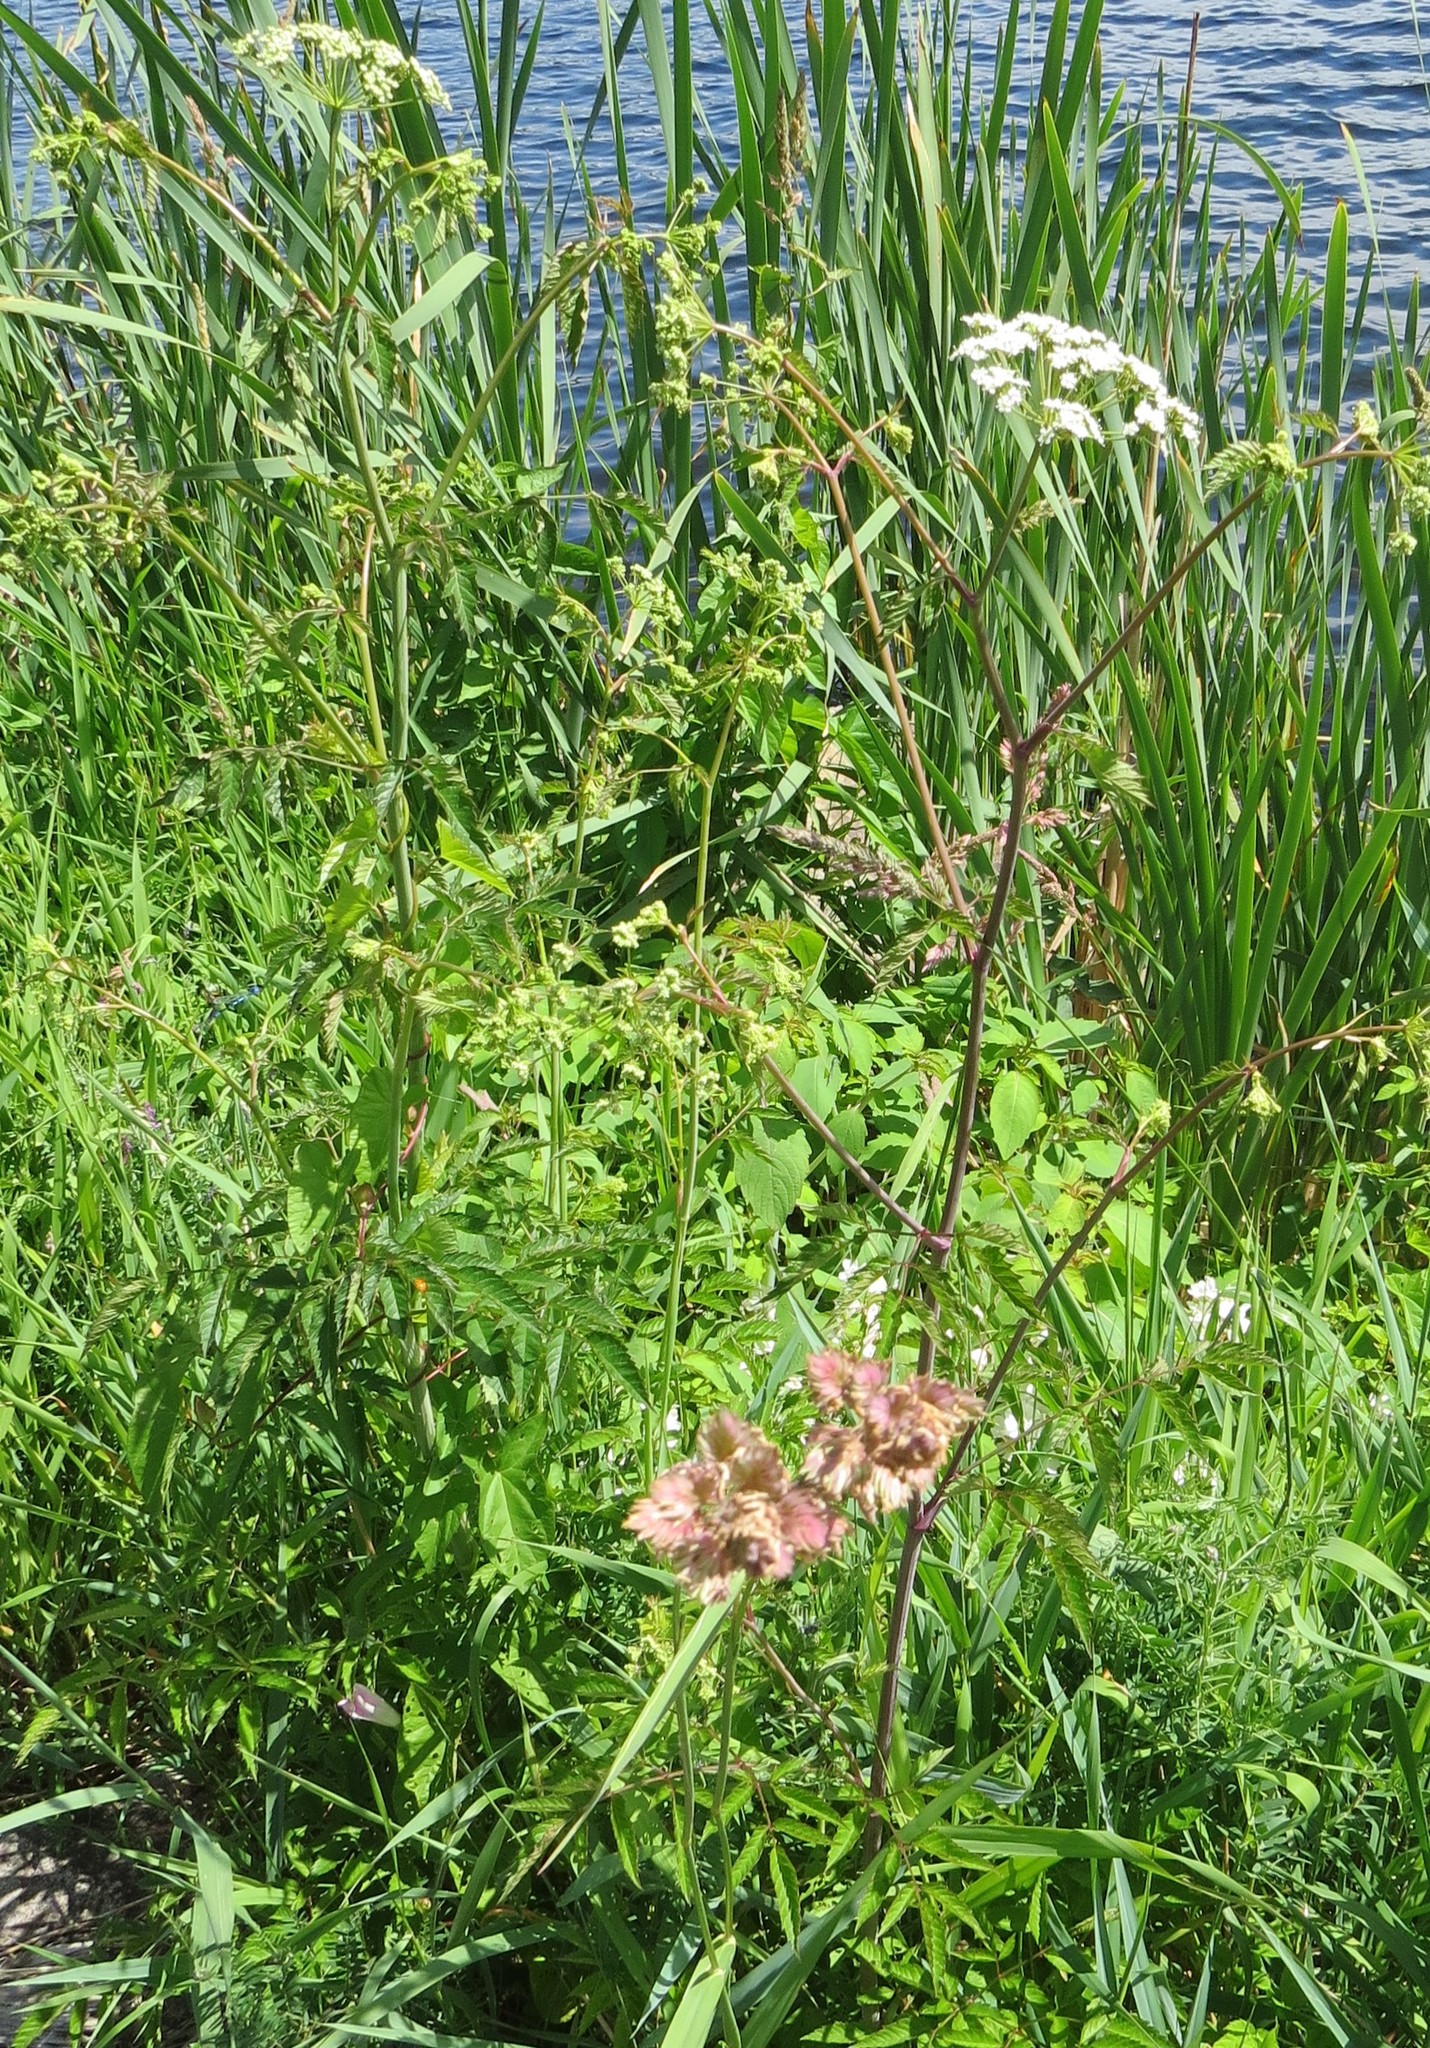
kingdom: Plantae
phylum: Tracheophyta
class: Magnoliopsida
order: Apiales
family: Apiaceae
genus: Cicuta
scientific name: Cicuta maculata
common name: Spotted cowbane
